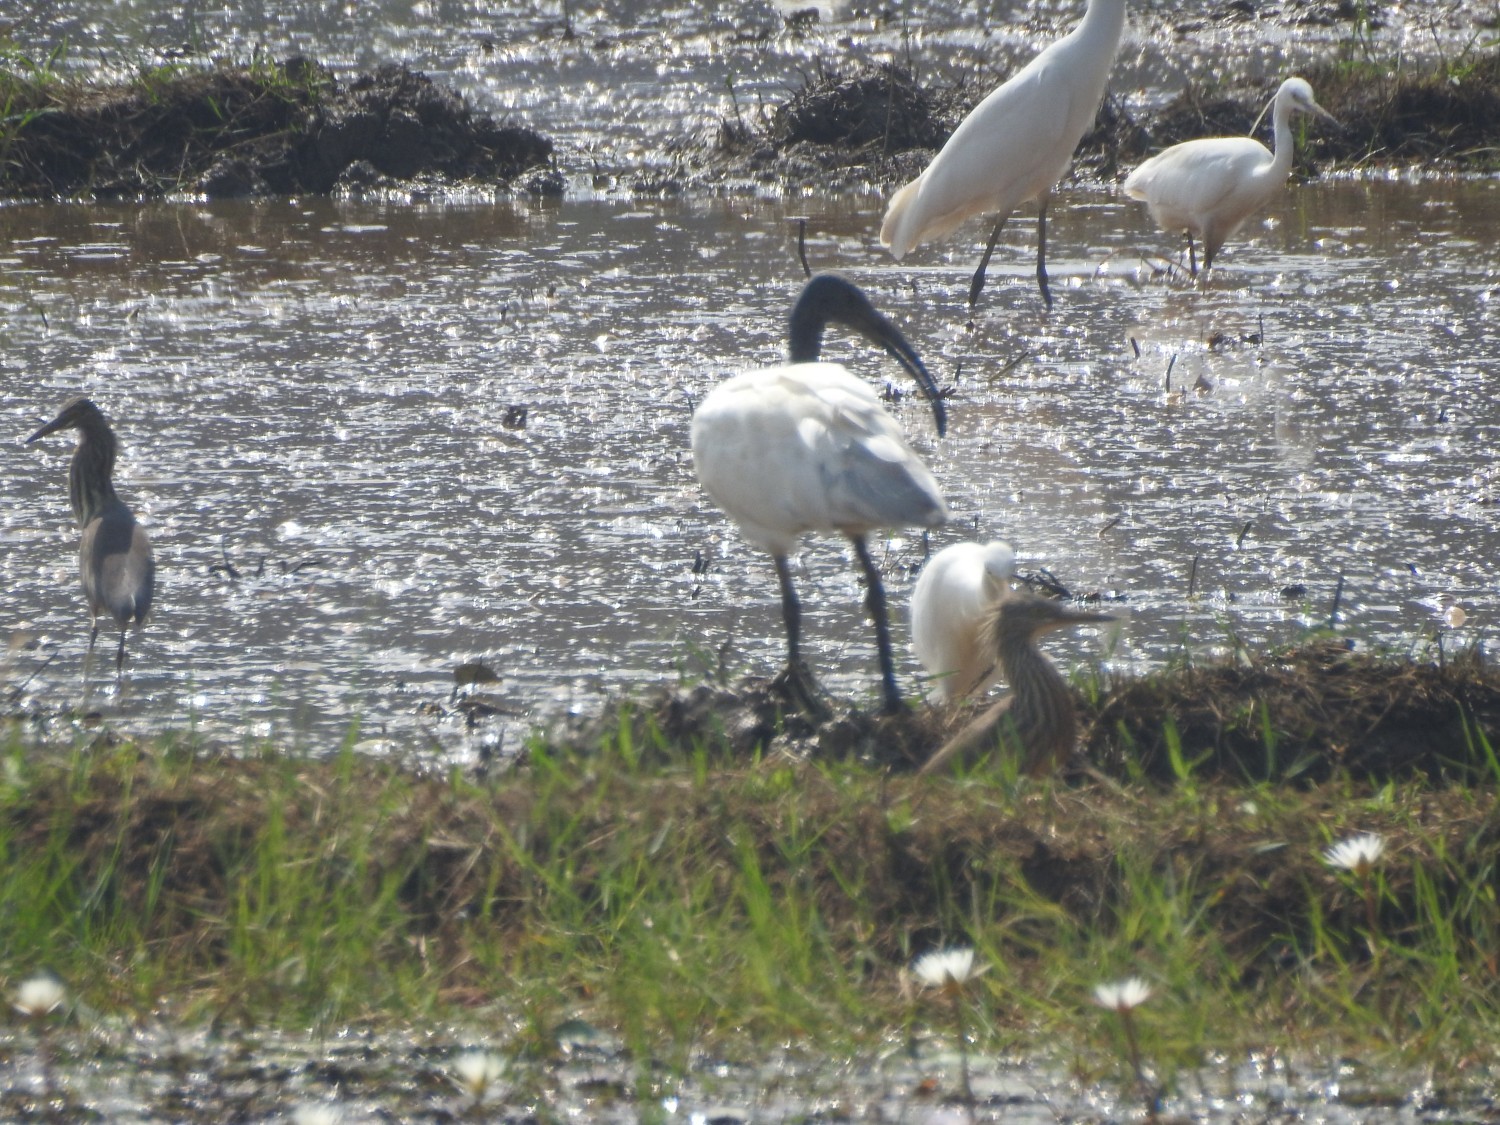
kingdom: Animalia
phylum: Chordata
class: Aves
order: Pelecaniformes
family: Threskiornithidae
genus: Threskiornis
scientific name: Threskiornis melanocephalus
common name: Black-headed ibis
